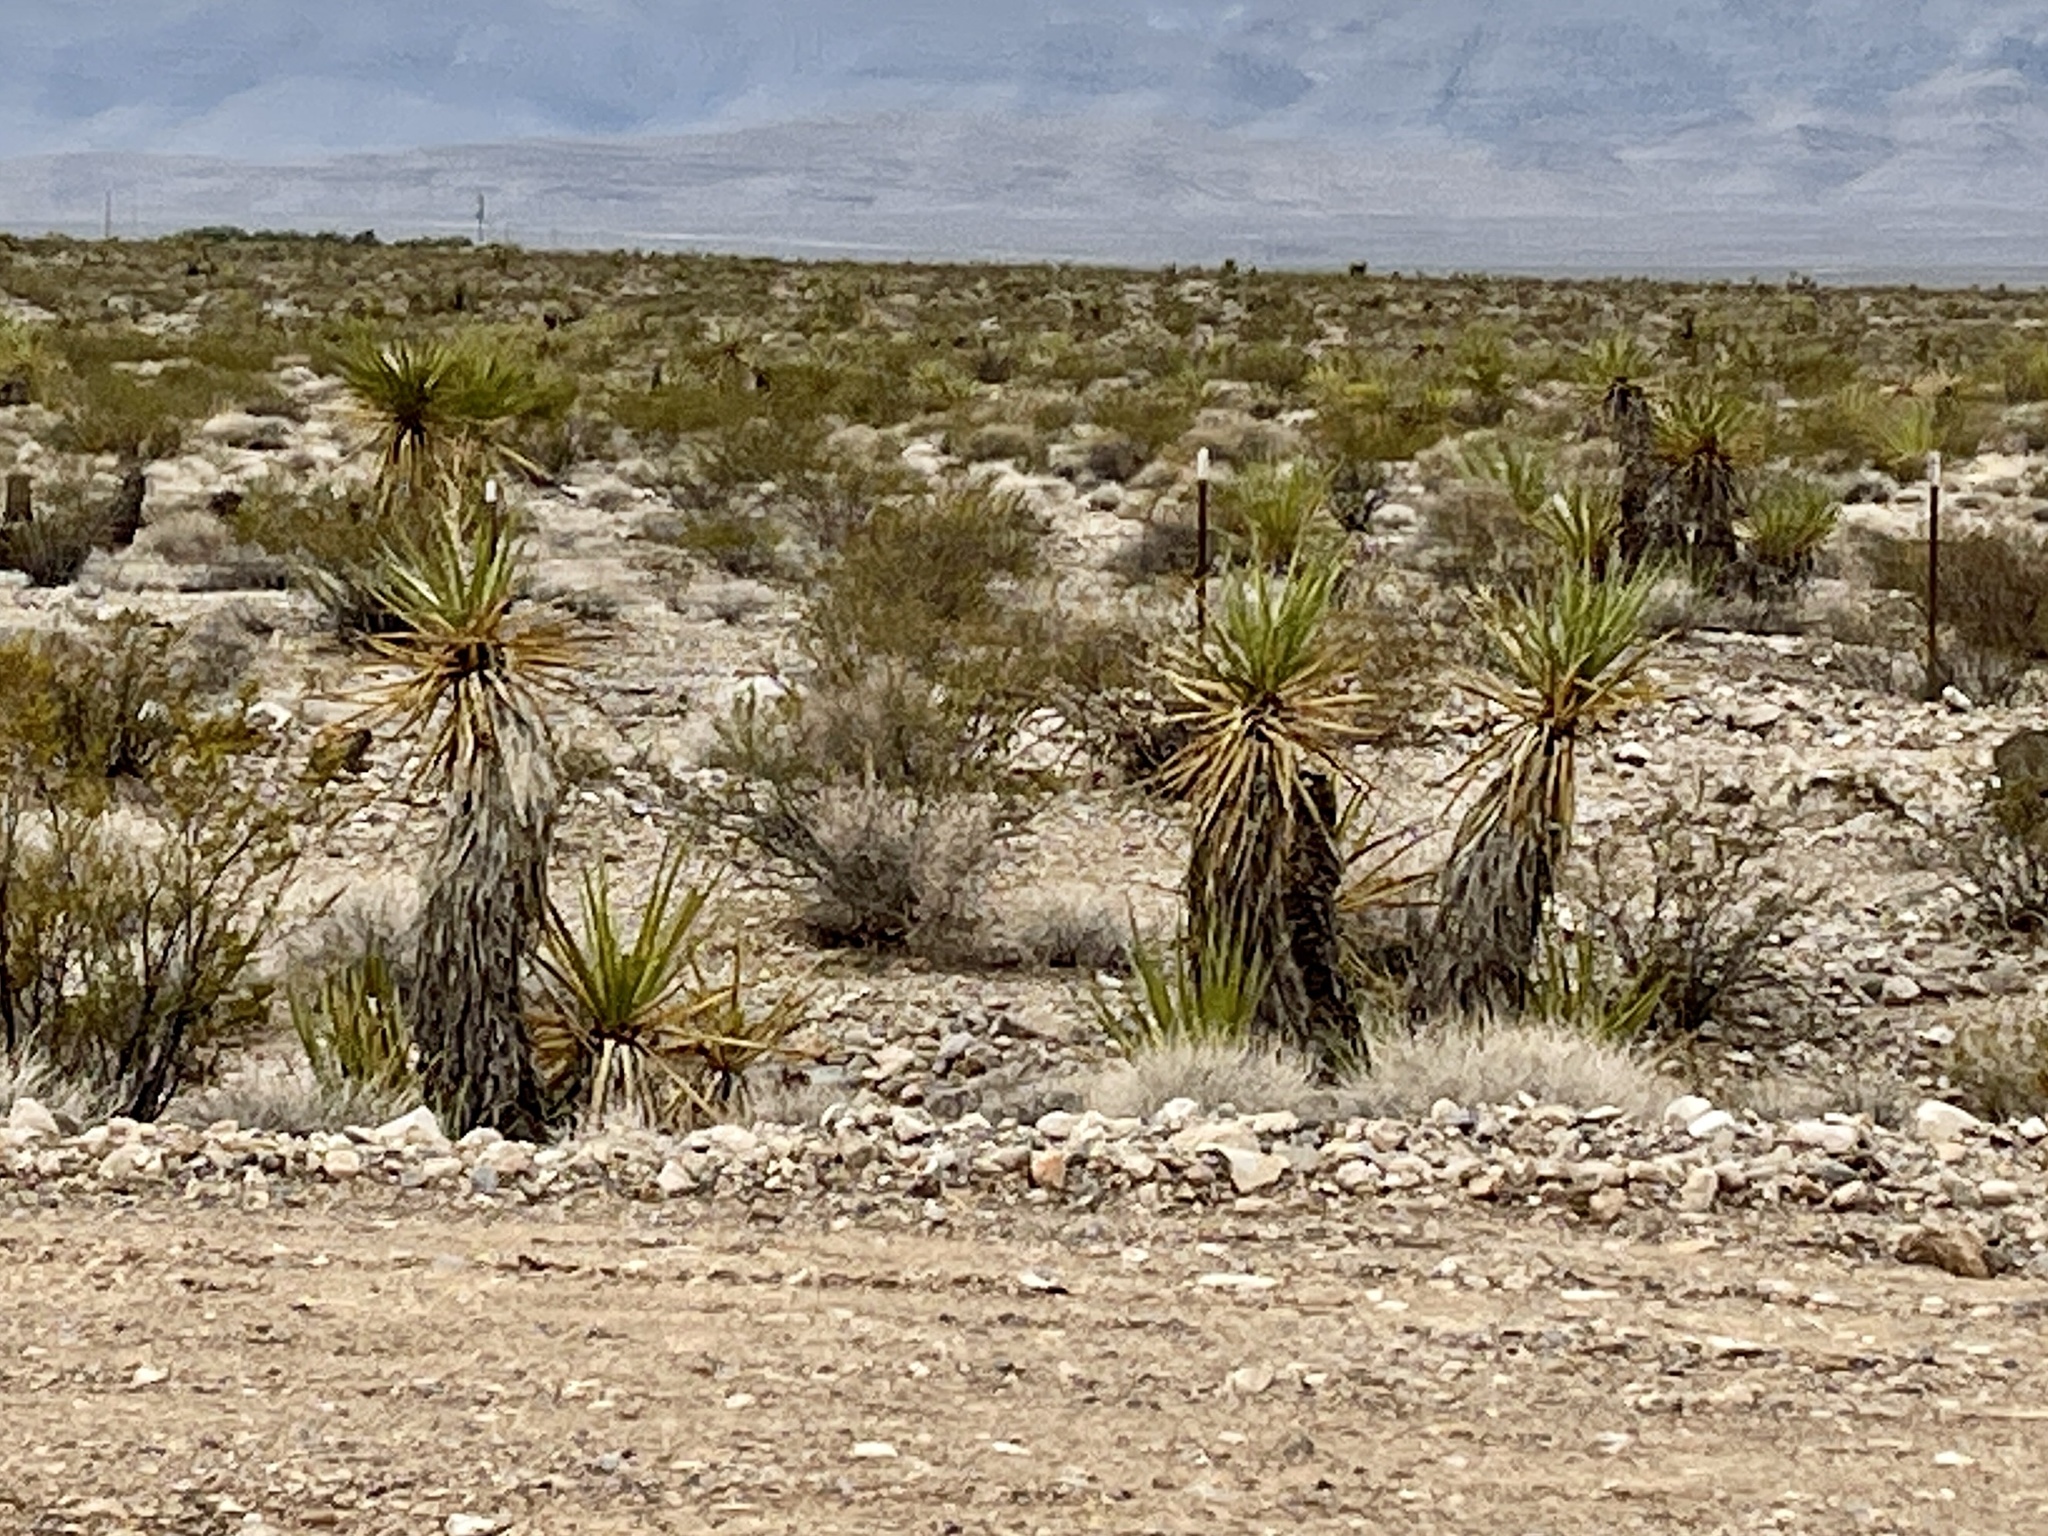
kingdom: Plantae
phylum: Tracheophyta
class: Liliopsida
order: Asparagales
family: Asparagaceae
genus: Yucca
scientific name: Yucca schidigera
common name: Mojave yucca
